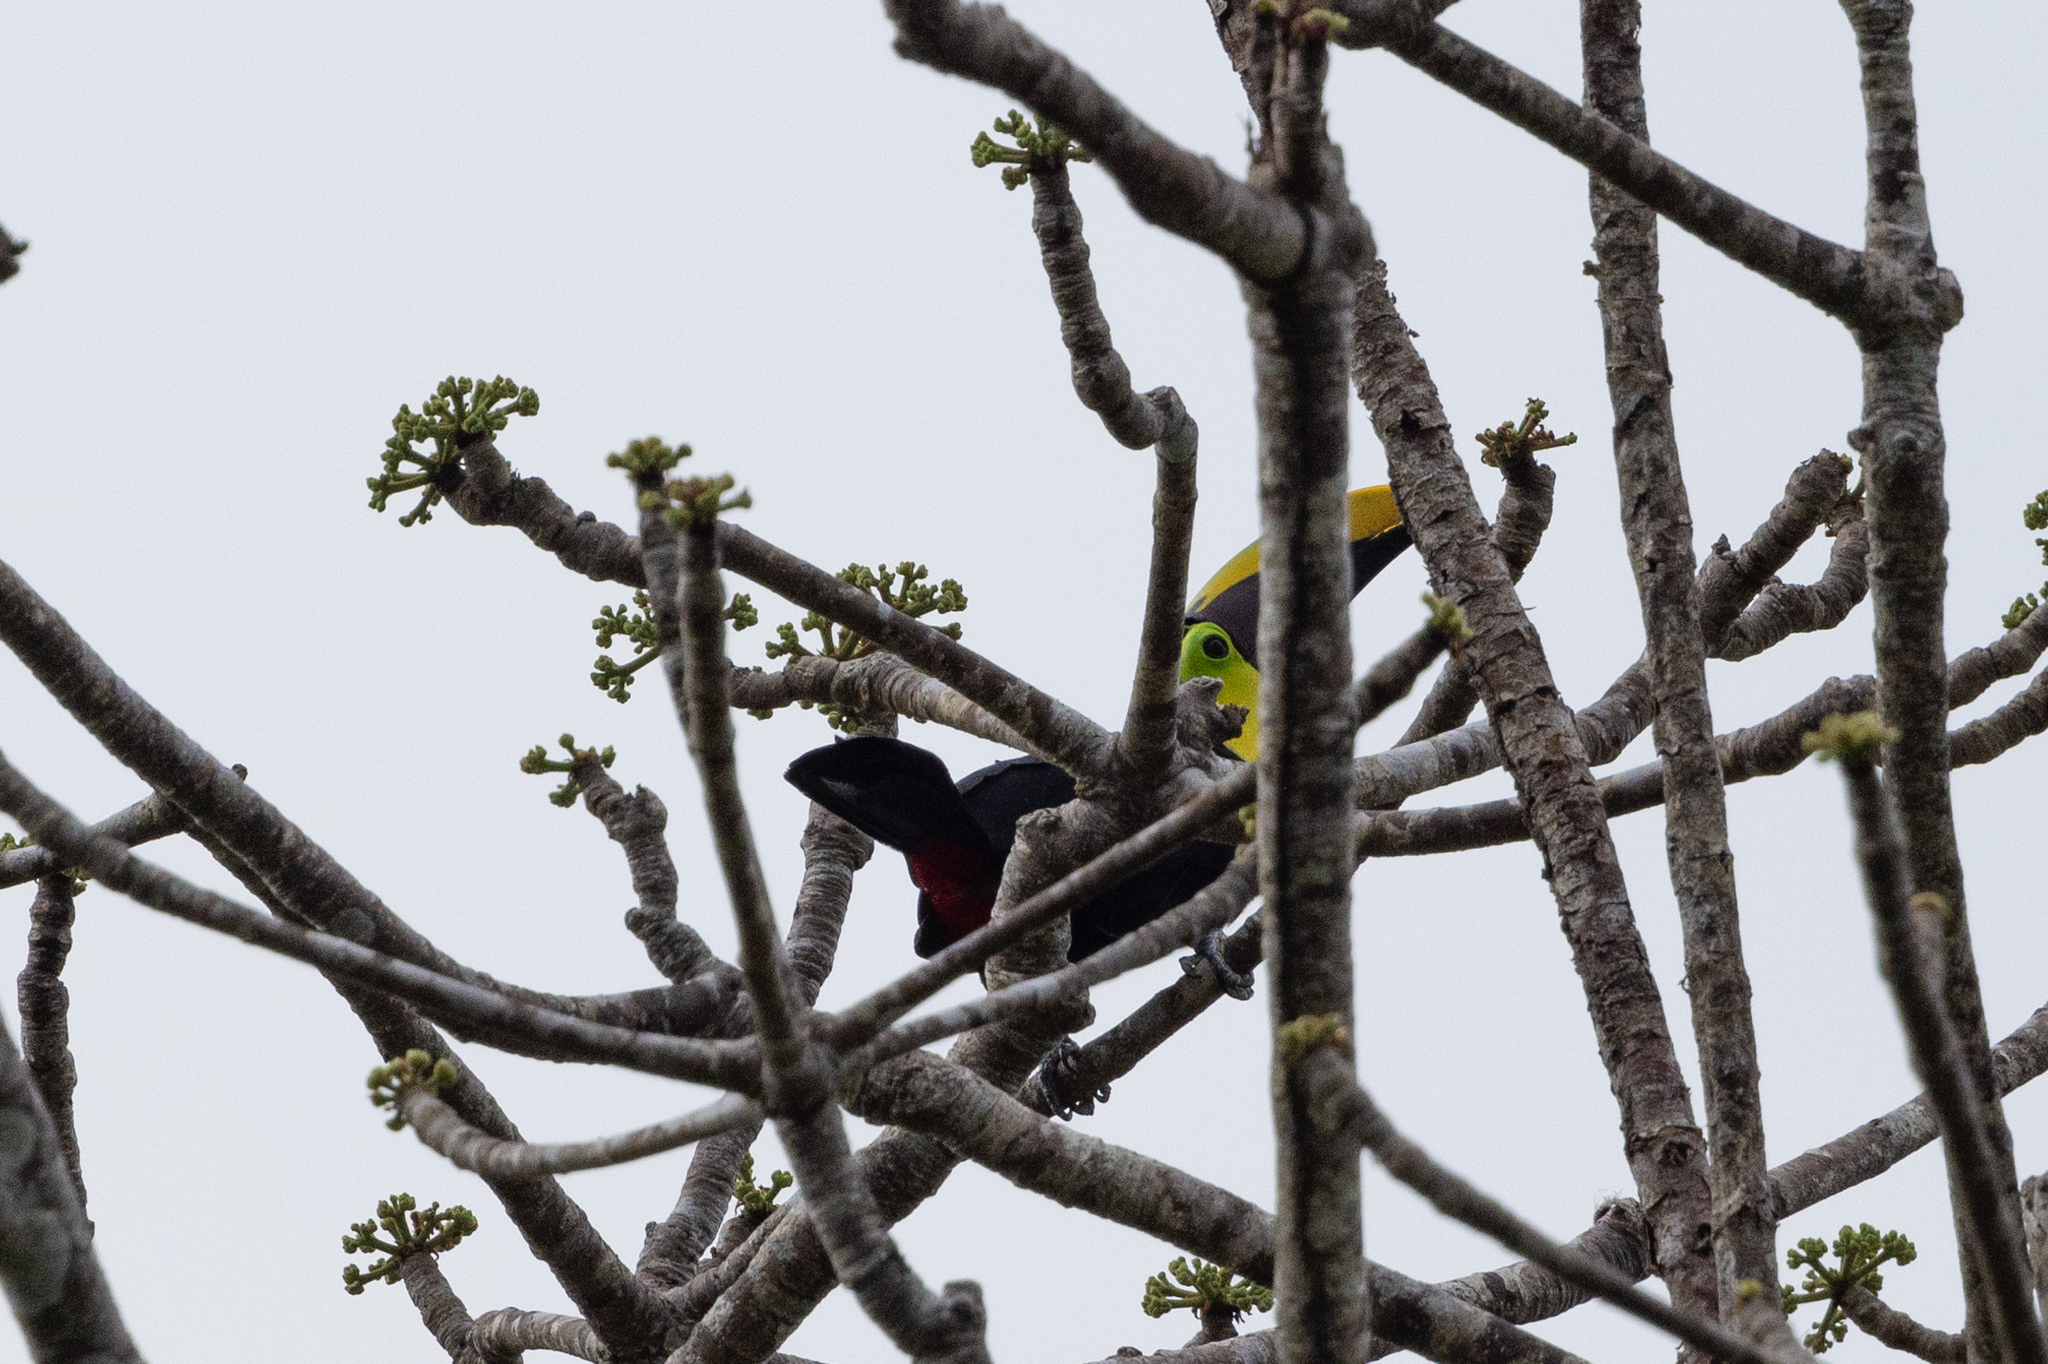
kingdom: Animalia
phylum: Chordata
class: Aves
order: Piciformes
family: Ramphastidae
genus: Ramphastos
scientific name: Ramphastos ambiguus
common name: Yellow-throated toucan
